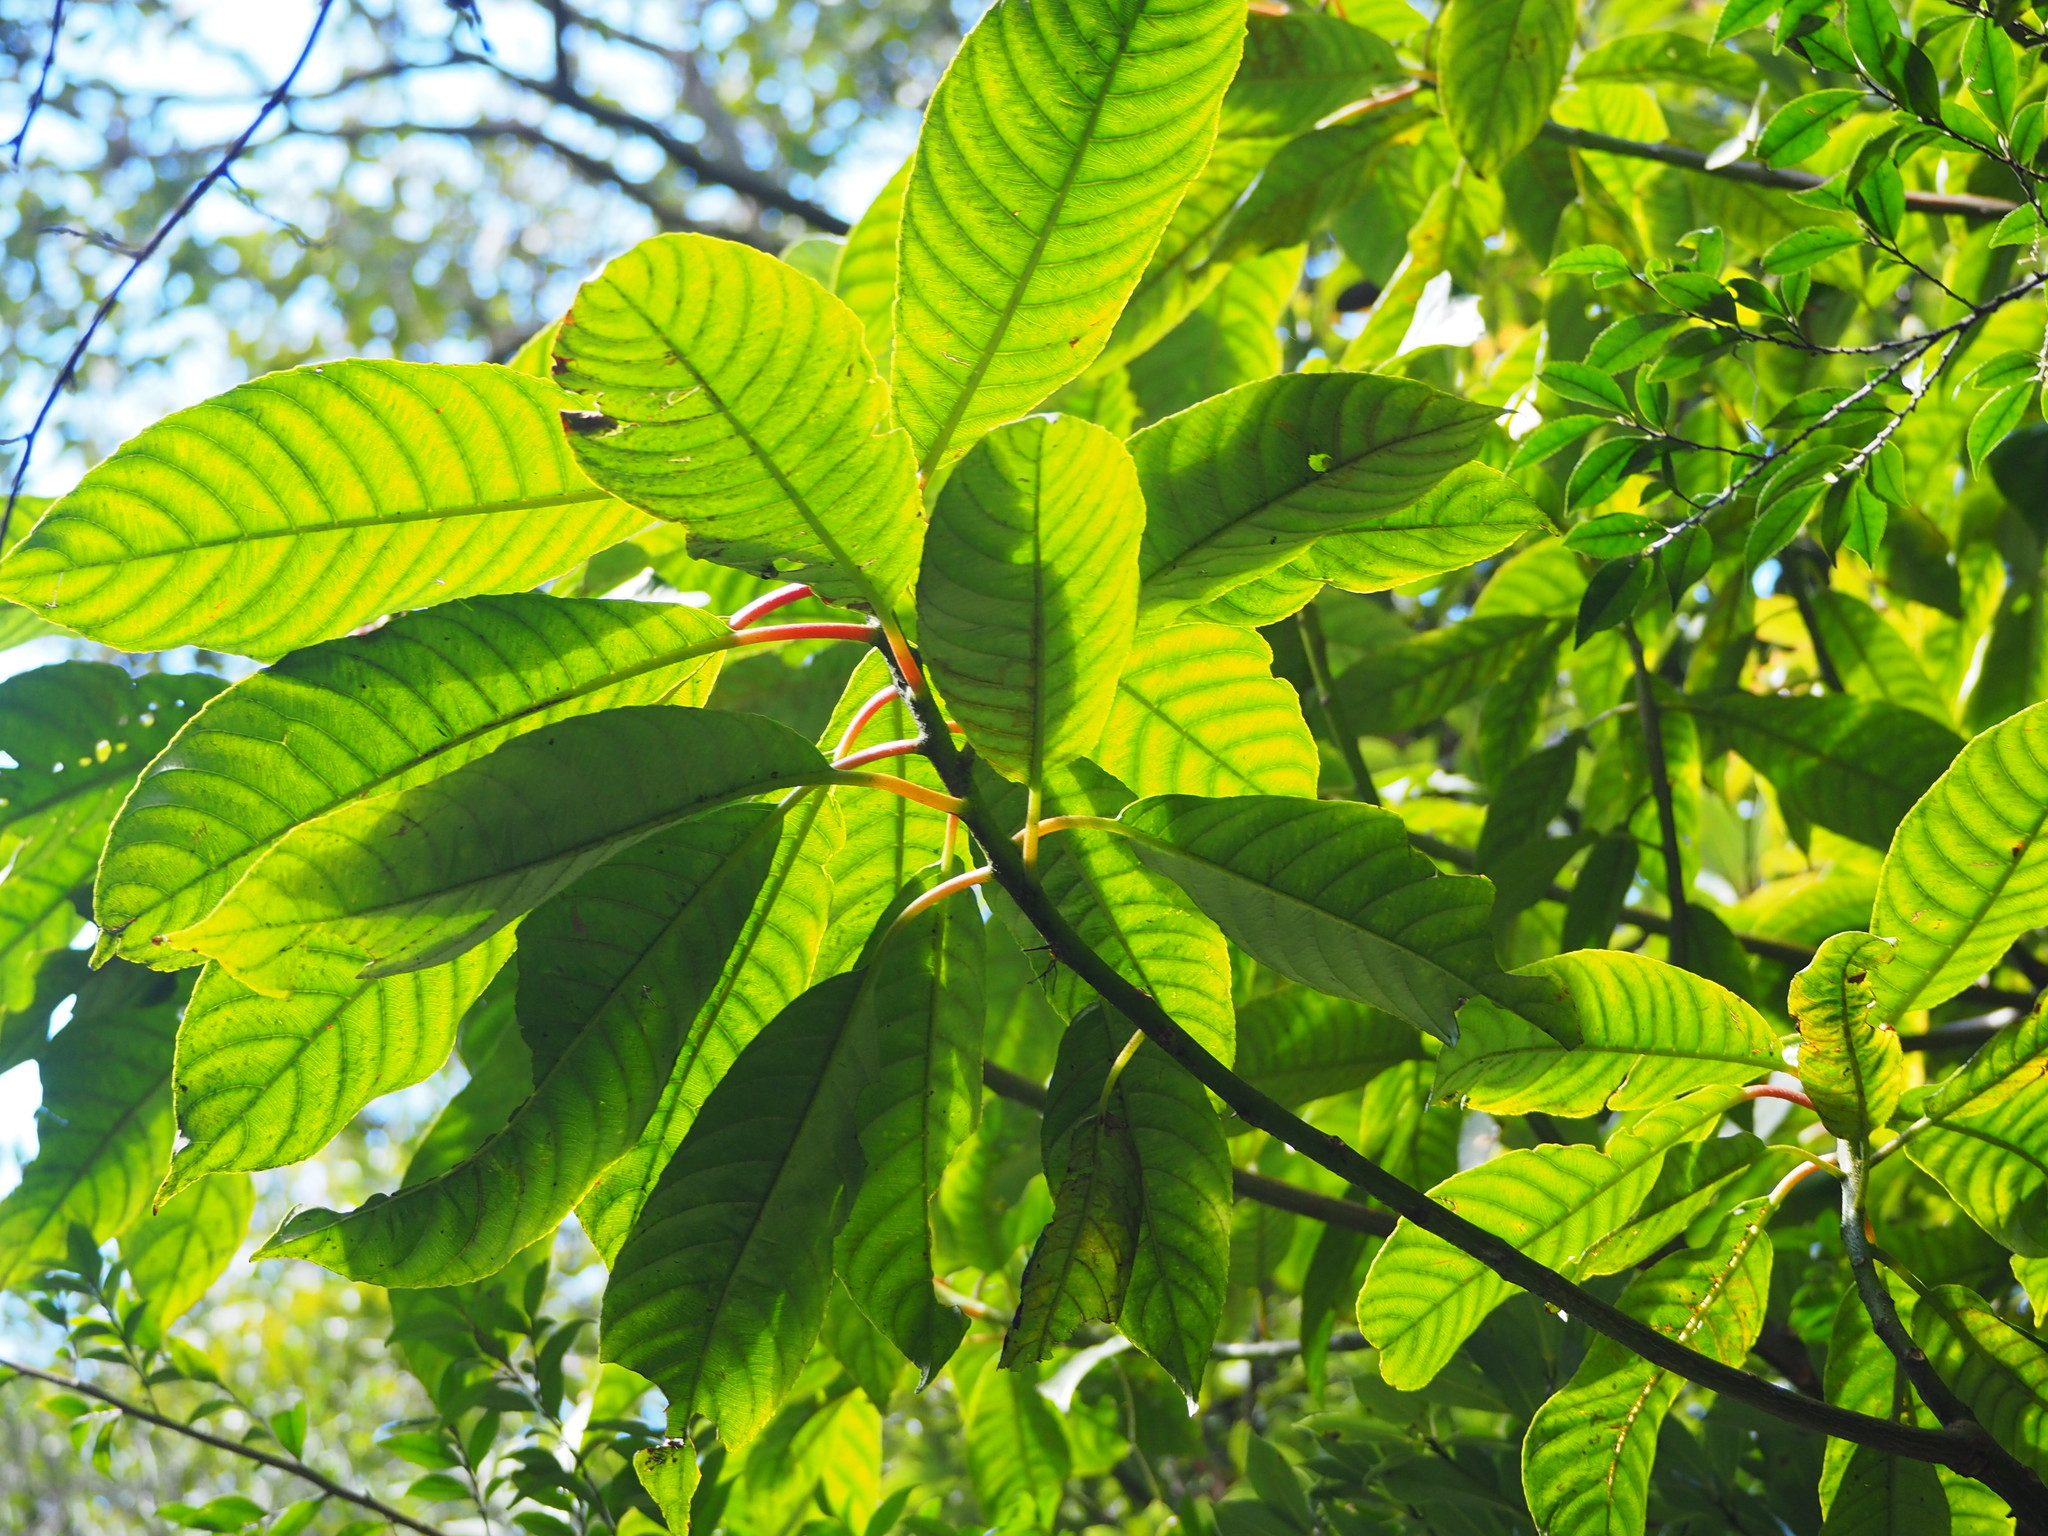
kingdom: Plantae
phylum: Tracheophyta
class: Magnoliopsida
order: Ericales
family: Actinidiaceae
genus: Saurauia
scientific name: Saurauia tristyla
